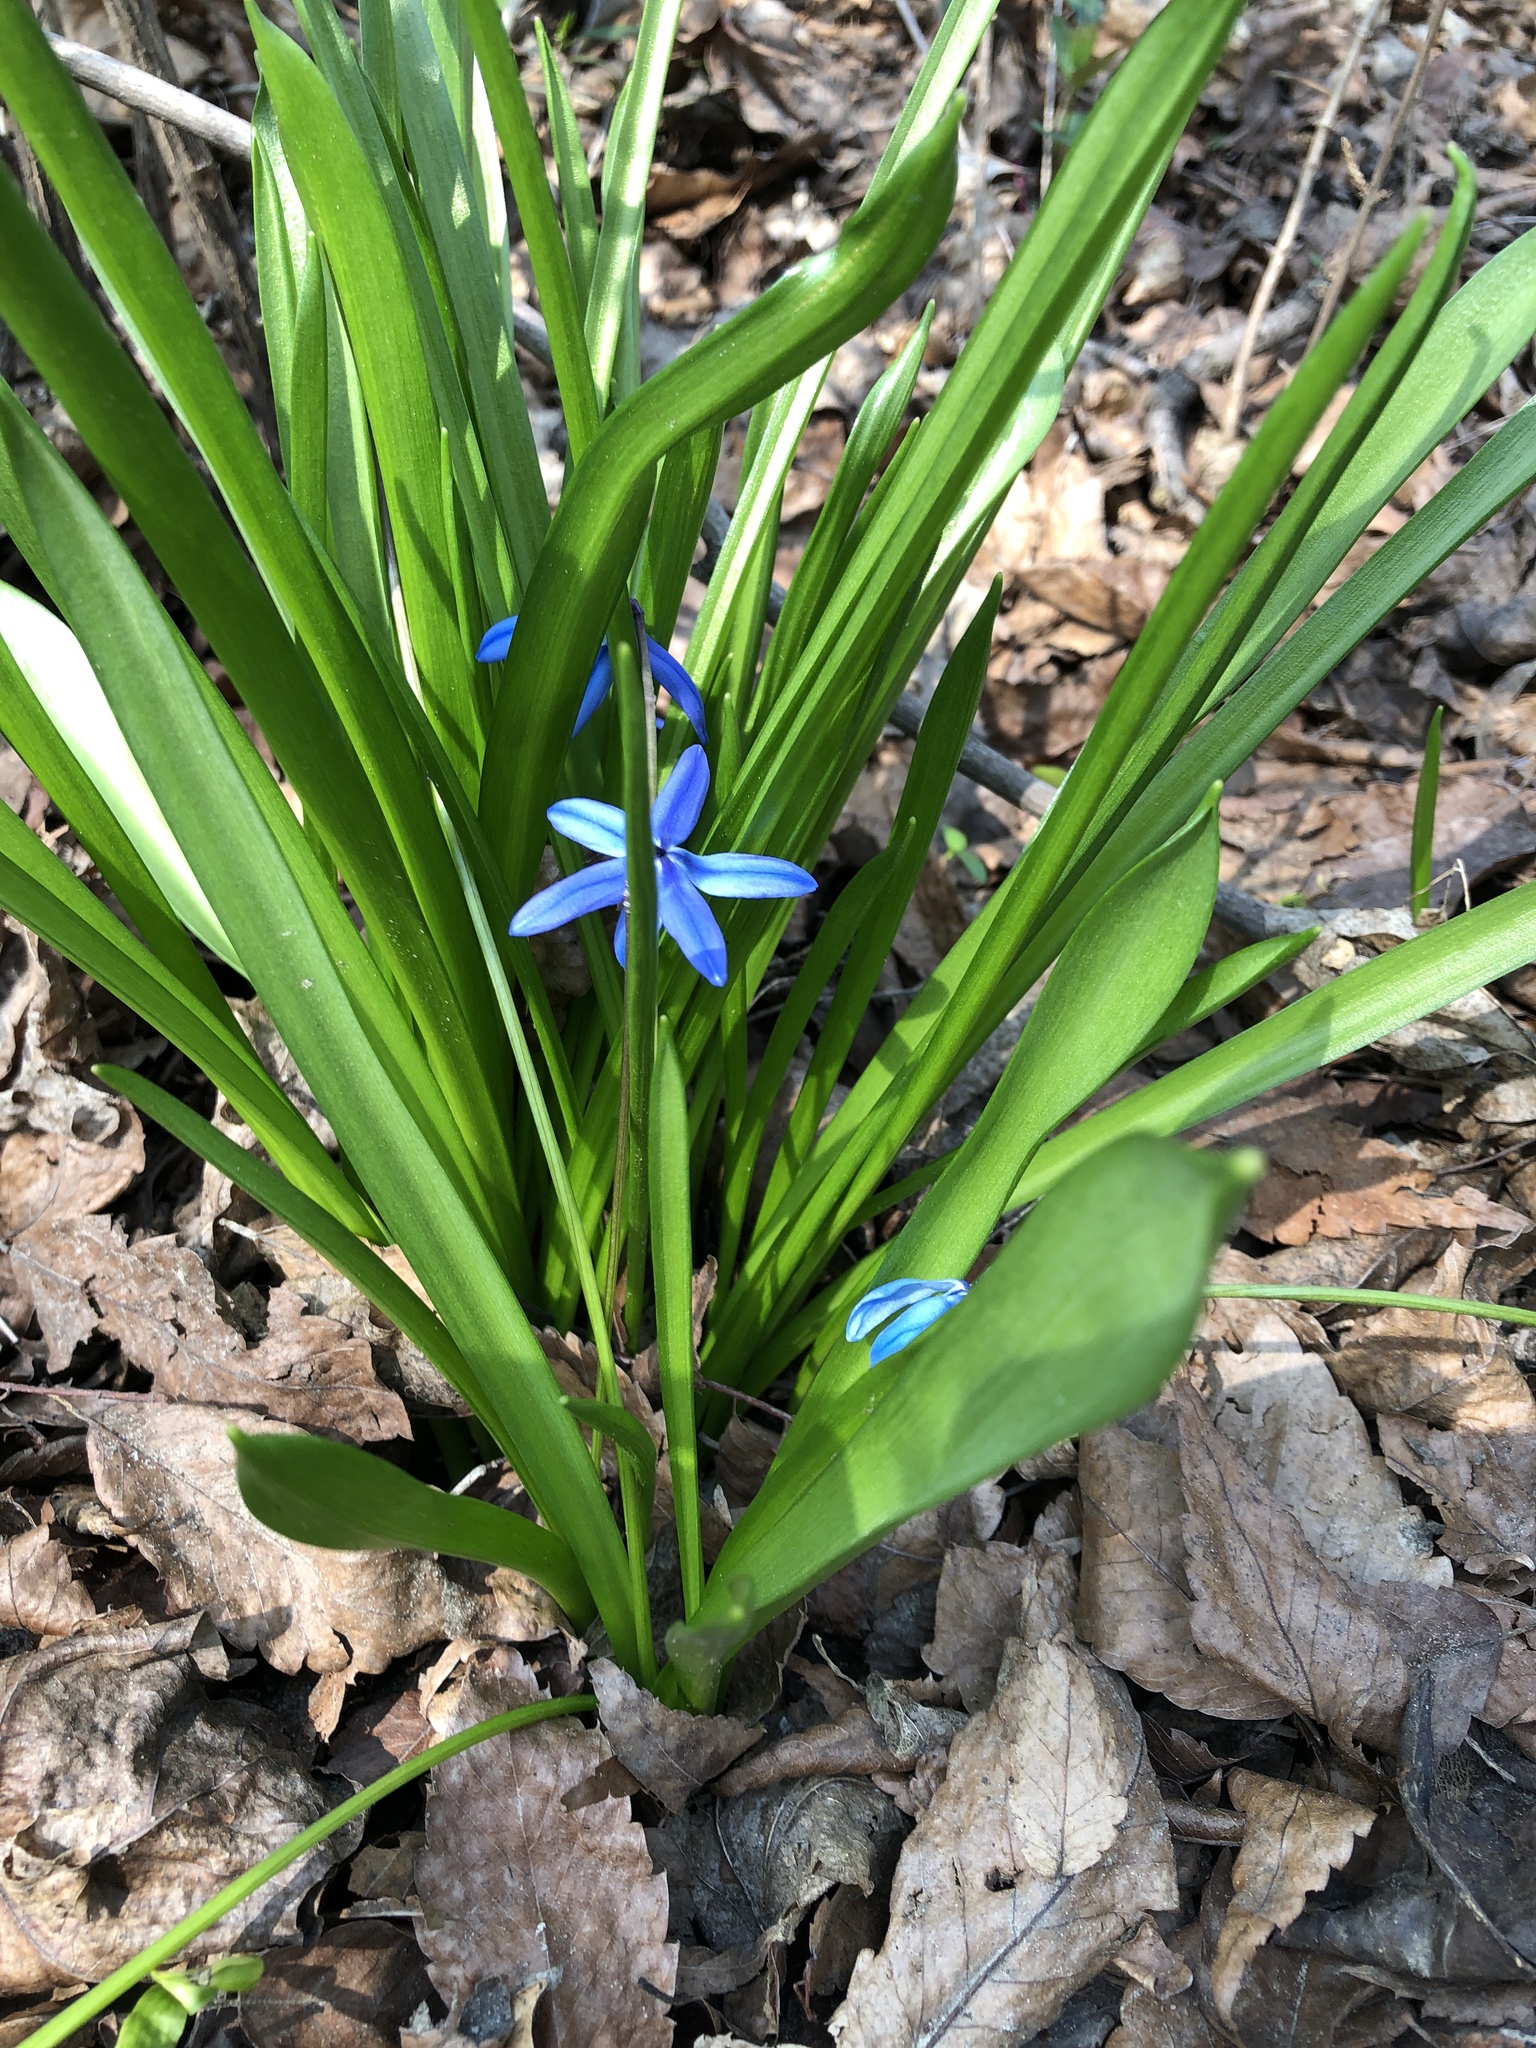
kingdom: Plantae
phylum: Tracheophyta
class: Liliopsida
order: Asparagales
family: Asparagaceae
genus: Scilla
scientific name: Scilla siberica
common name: Siberian squill
